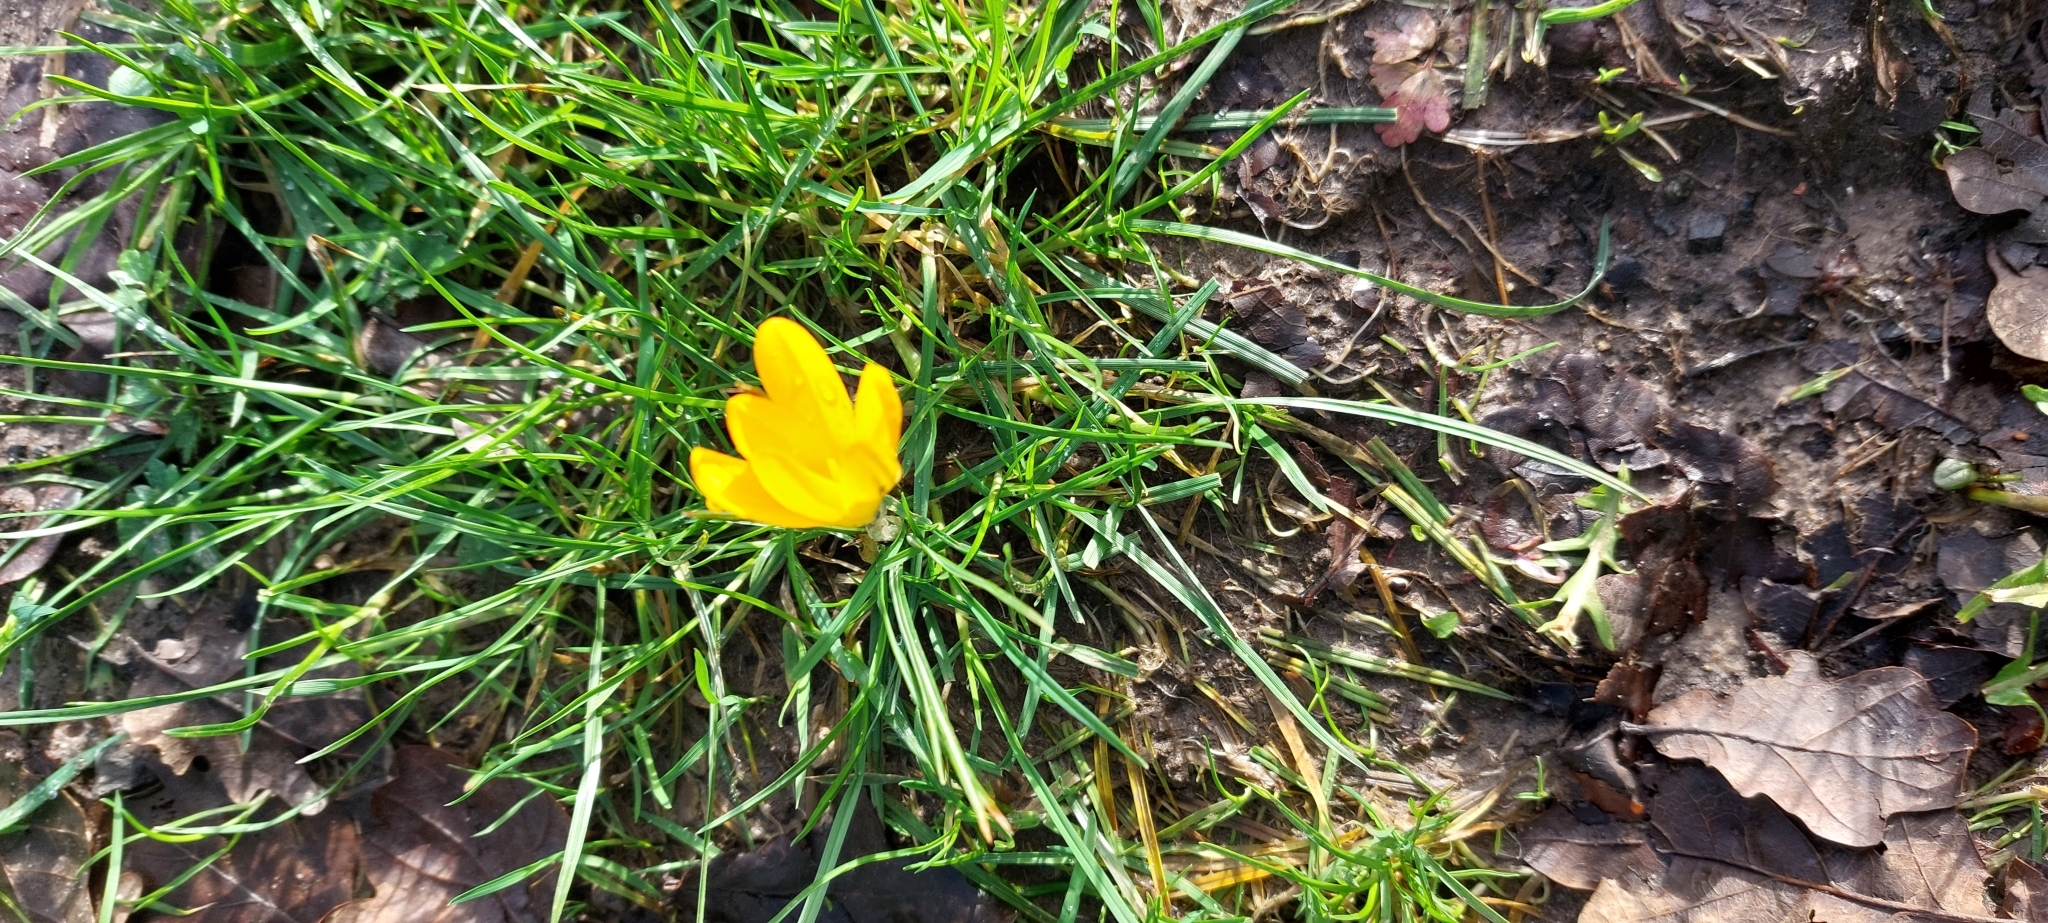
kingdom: Plantae
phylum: Tracheophyta
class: Liliopsida
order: Asparagales
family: Iridaceae
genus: Crocus
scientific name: Crocus luteus
